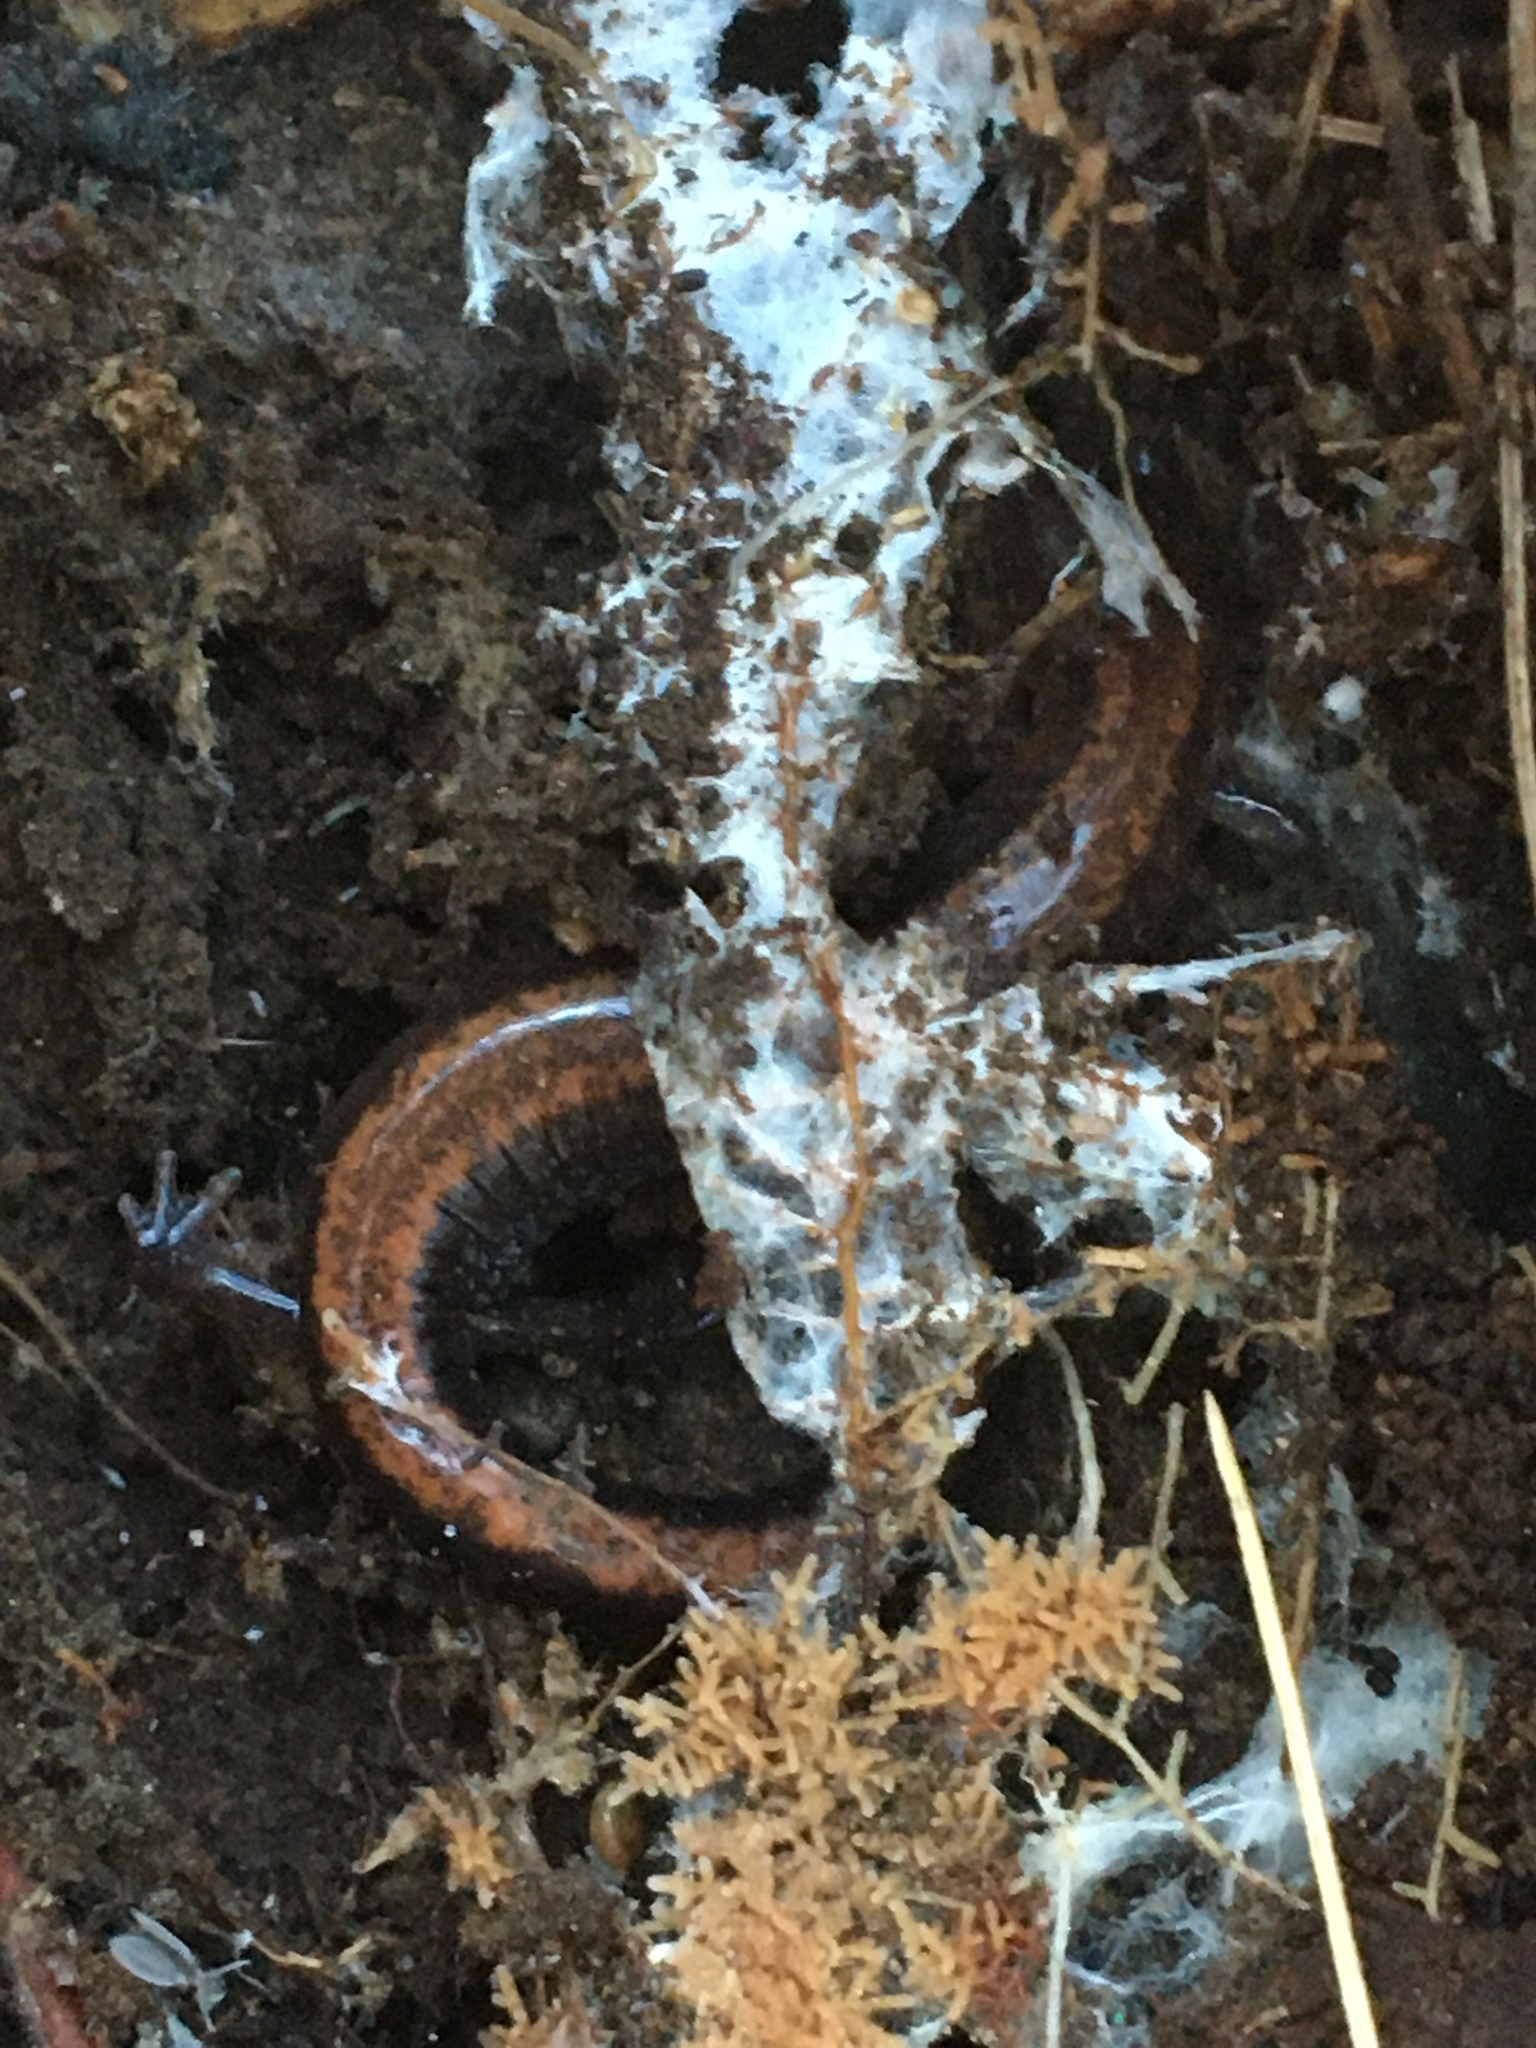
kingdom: Animalia
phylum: Chordata
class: Amphibia
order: Caudata
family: Plethodontidae
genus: Plethodon
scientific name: Plethodon cinereus
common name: Redback salamander
